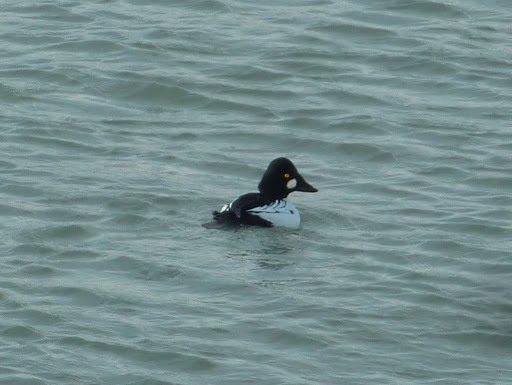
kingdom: Animalia
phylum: Chordata
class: Aves
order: Anseriformes
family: Anatidae
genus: Bucephala
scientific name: Bucephala clangula
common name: Common goldeneye
